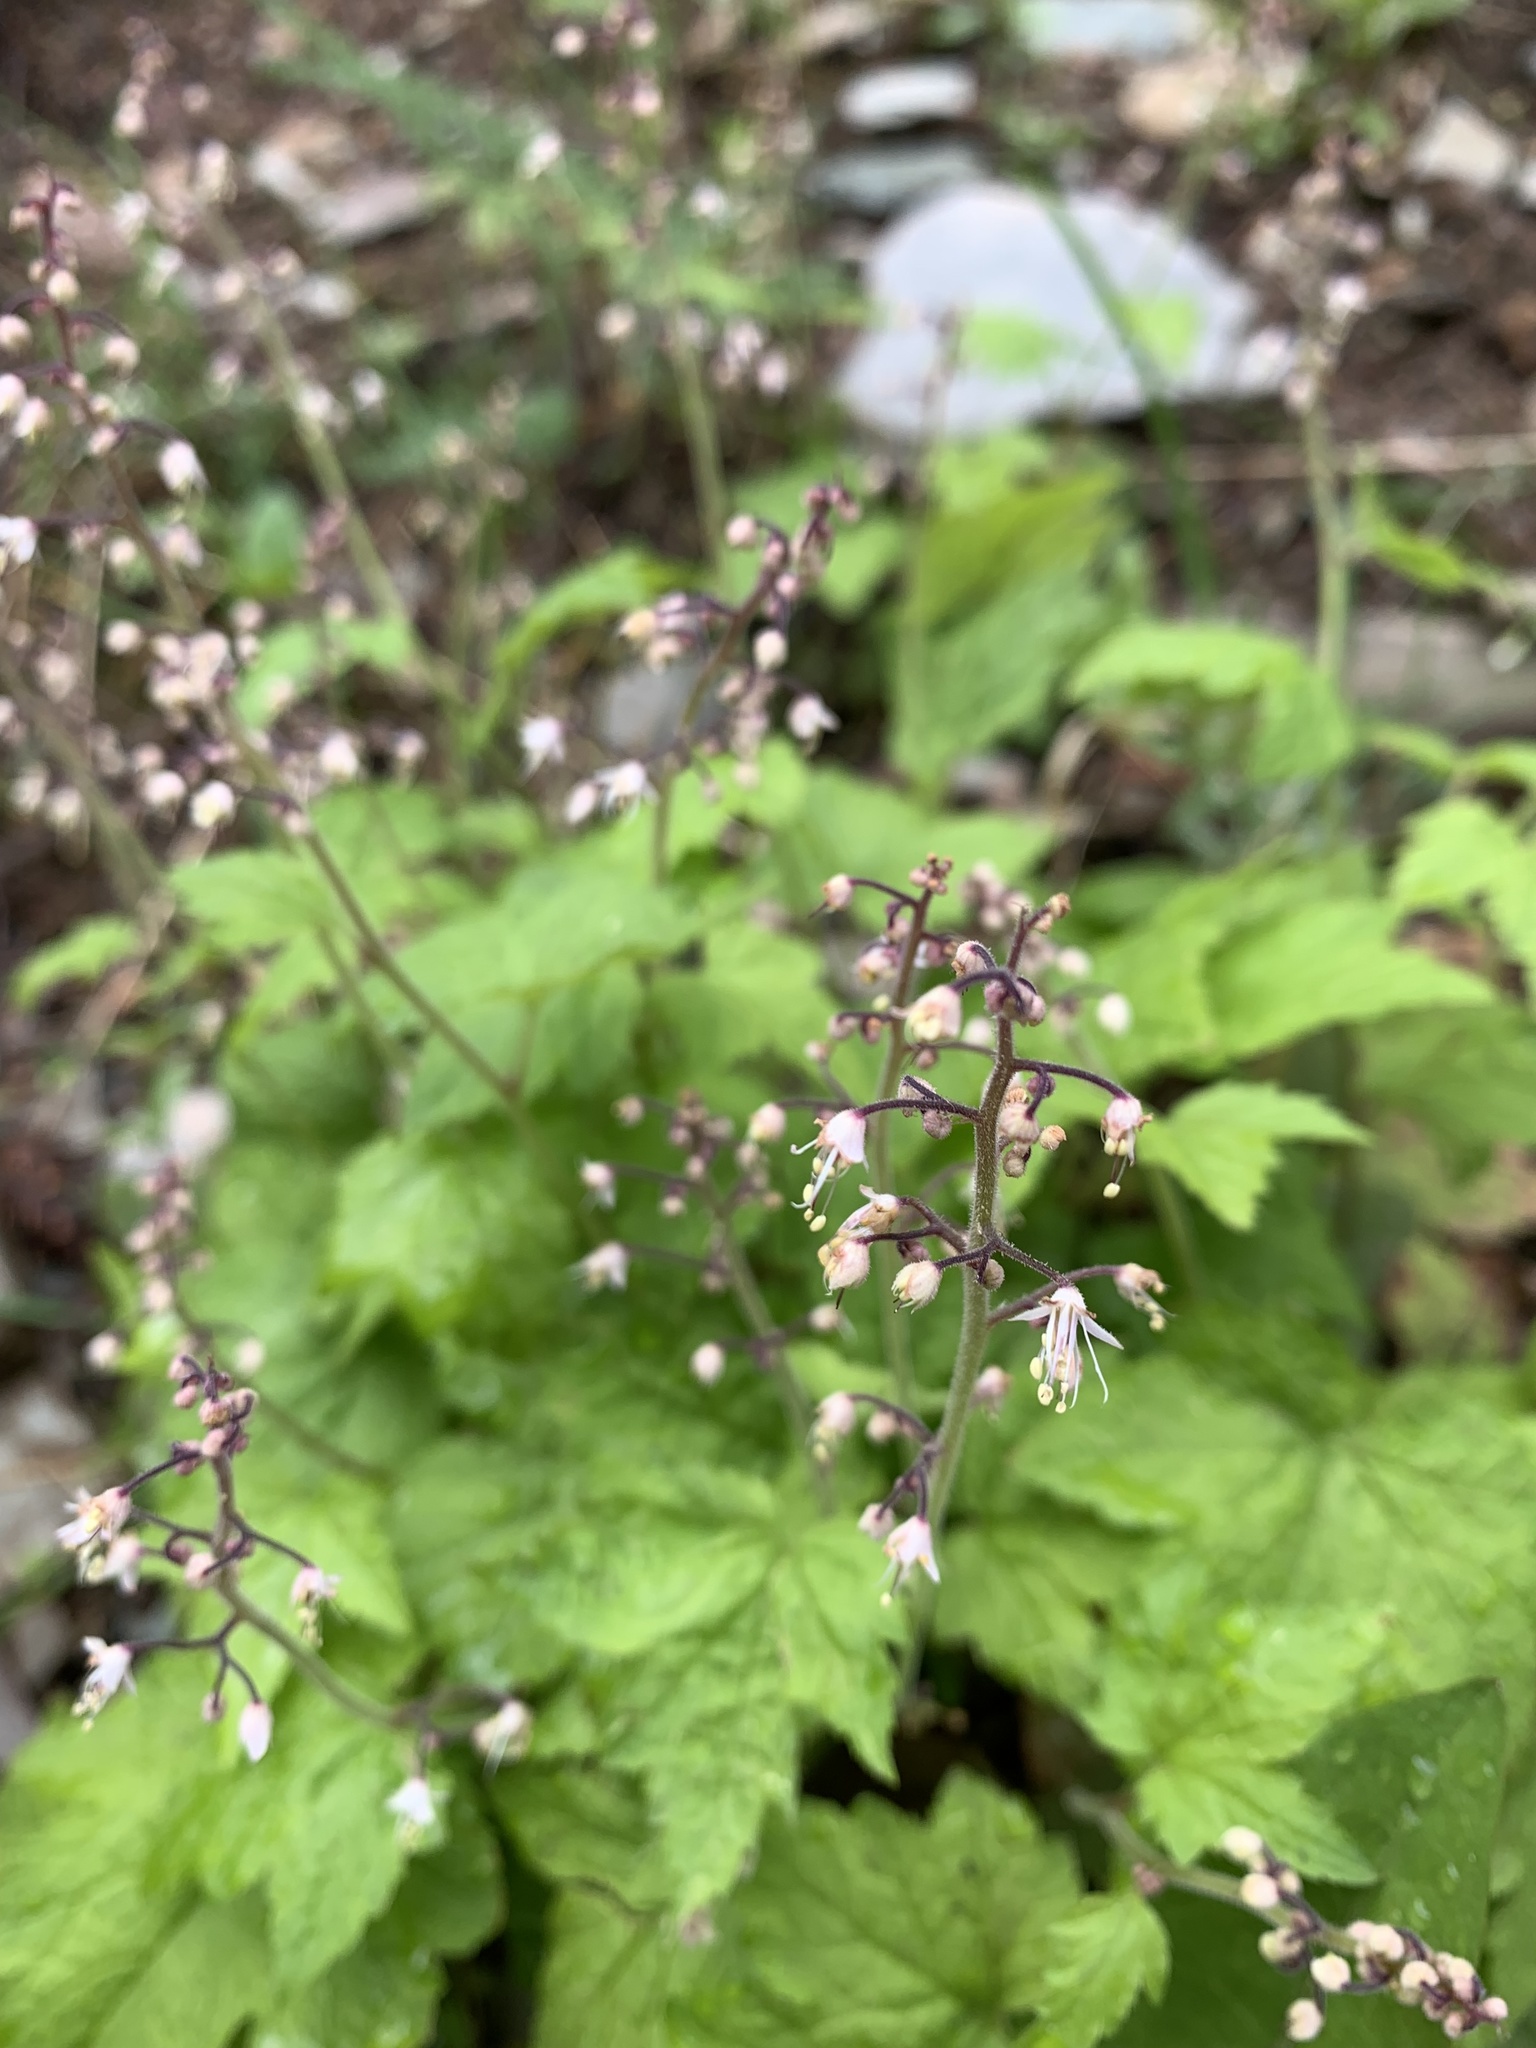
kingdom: Plantae
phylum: Tracheophyta
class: Magnoliopsida
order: Saxifragales
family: Saxifragaceae
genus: Tiarella
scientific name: Tiarella trifoliata
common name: Sugar-scoop
